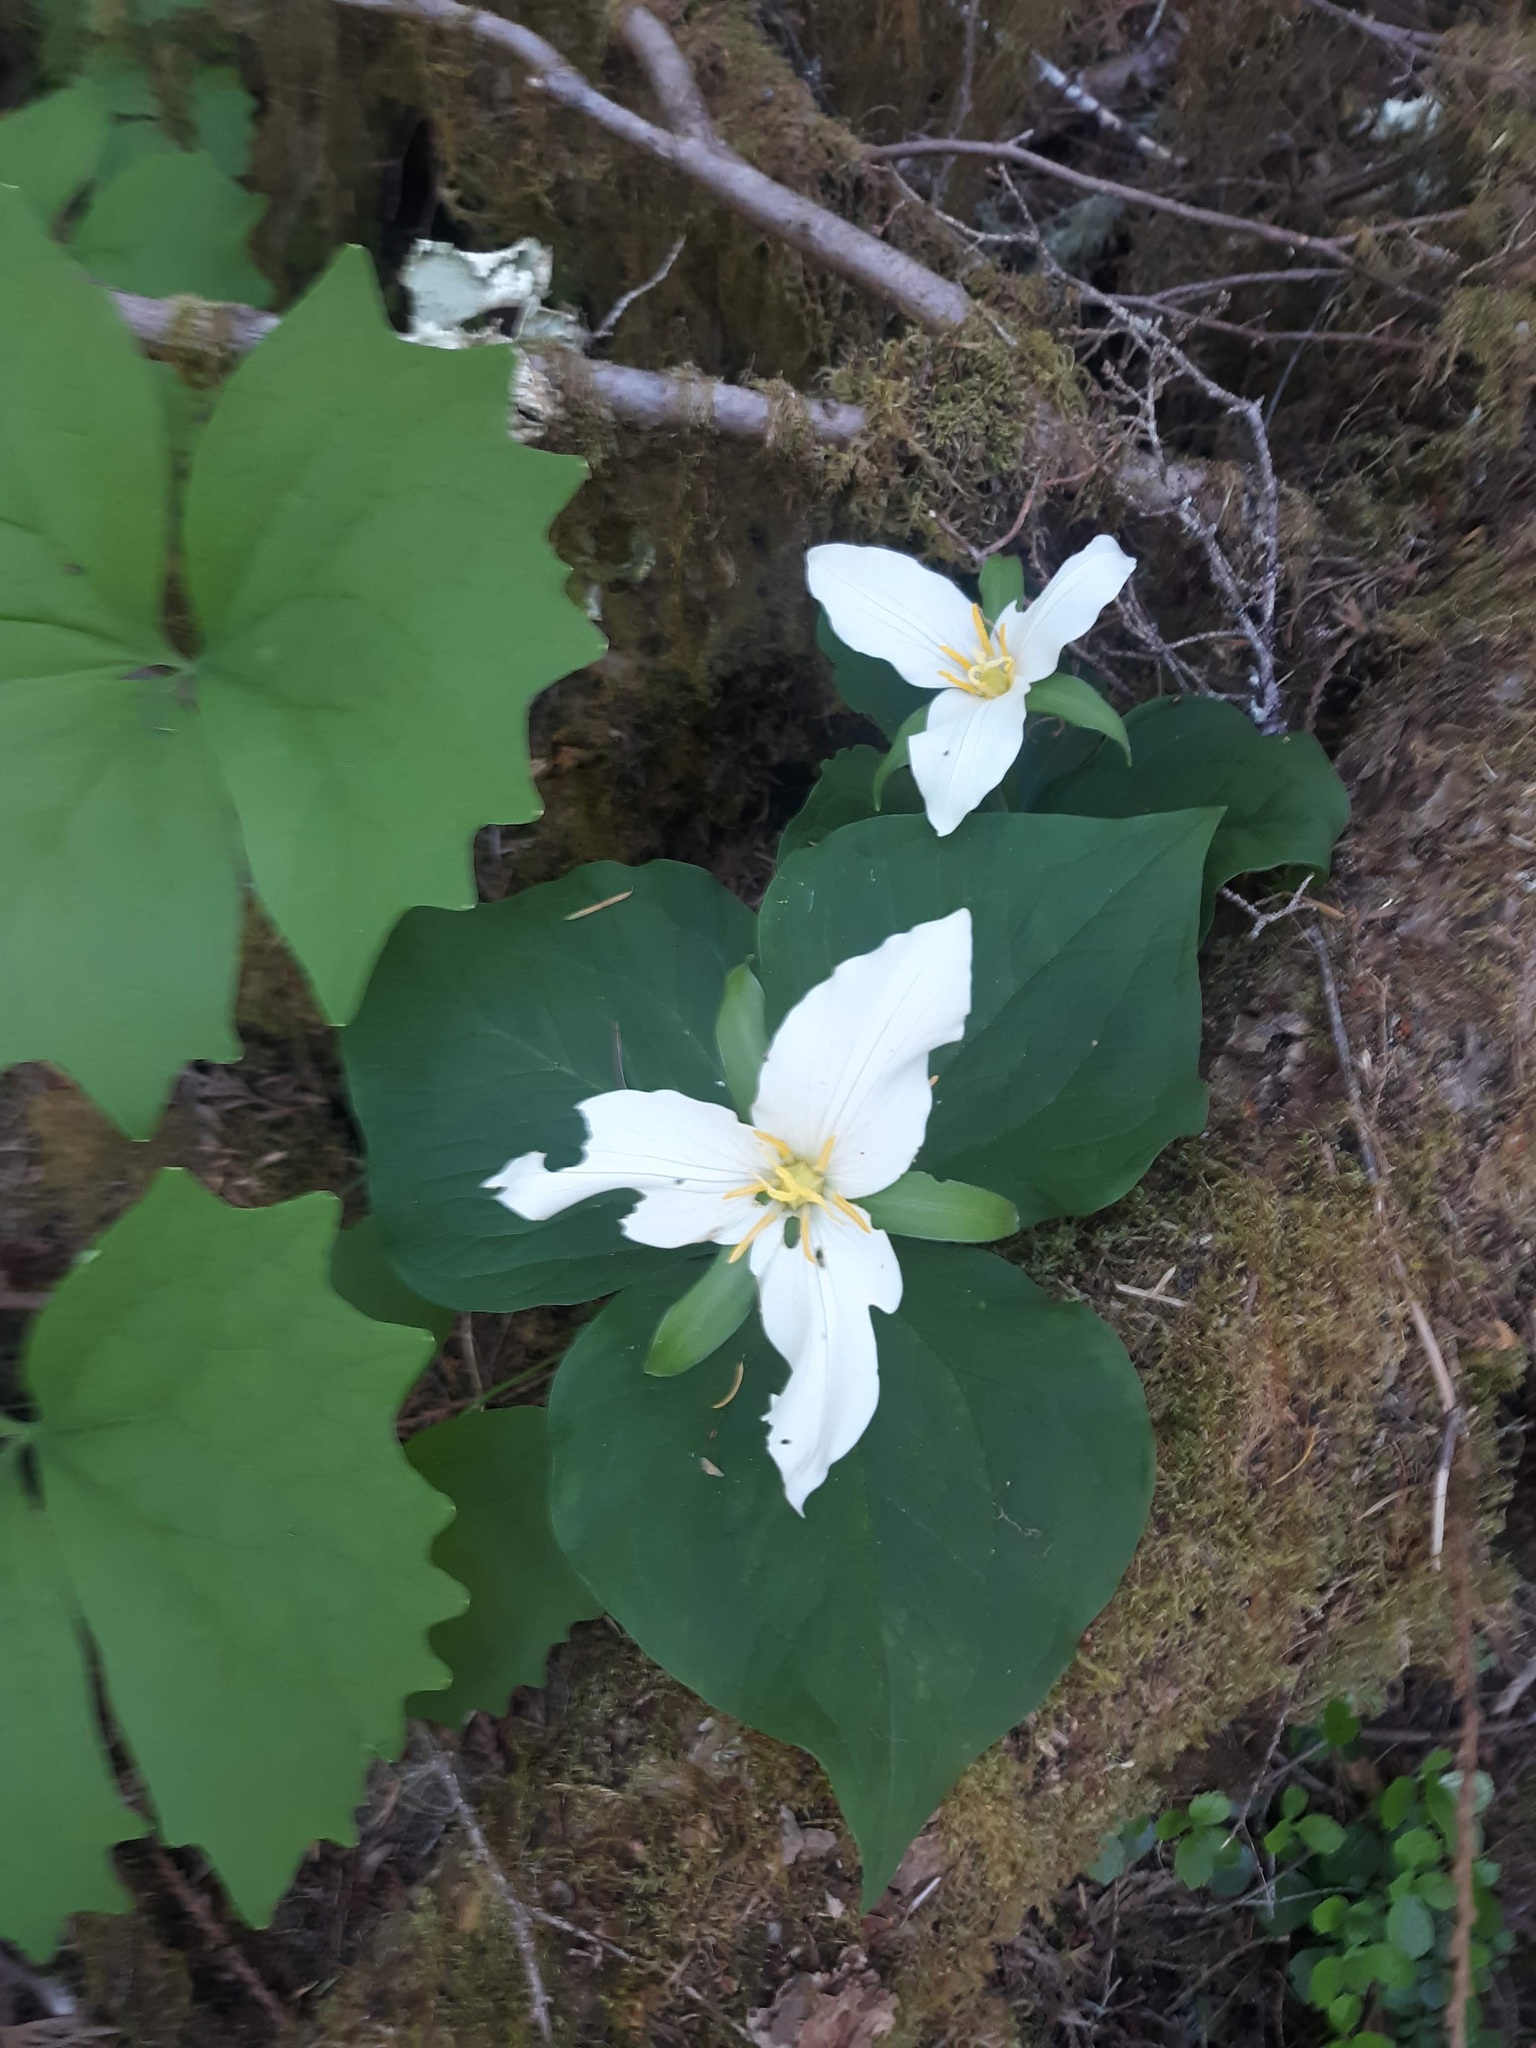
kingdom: Plantae
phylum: Tracheophyta
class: Liliopsida
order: Liliales
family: Melanthiaceae
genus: Trillium
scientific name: Trillium ovatum
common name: Pacific trillium
